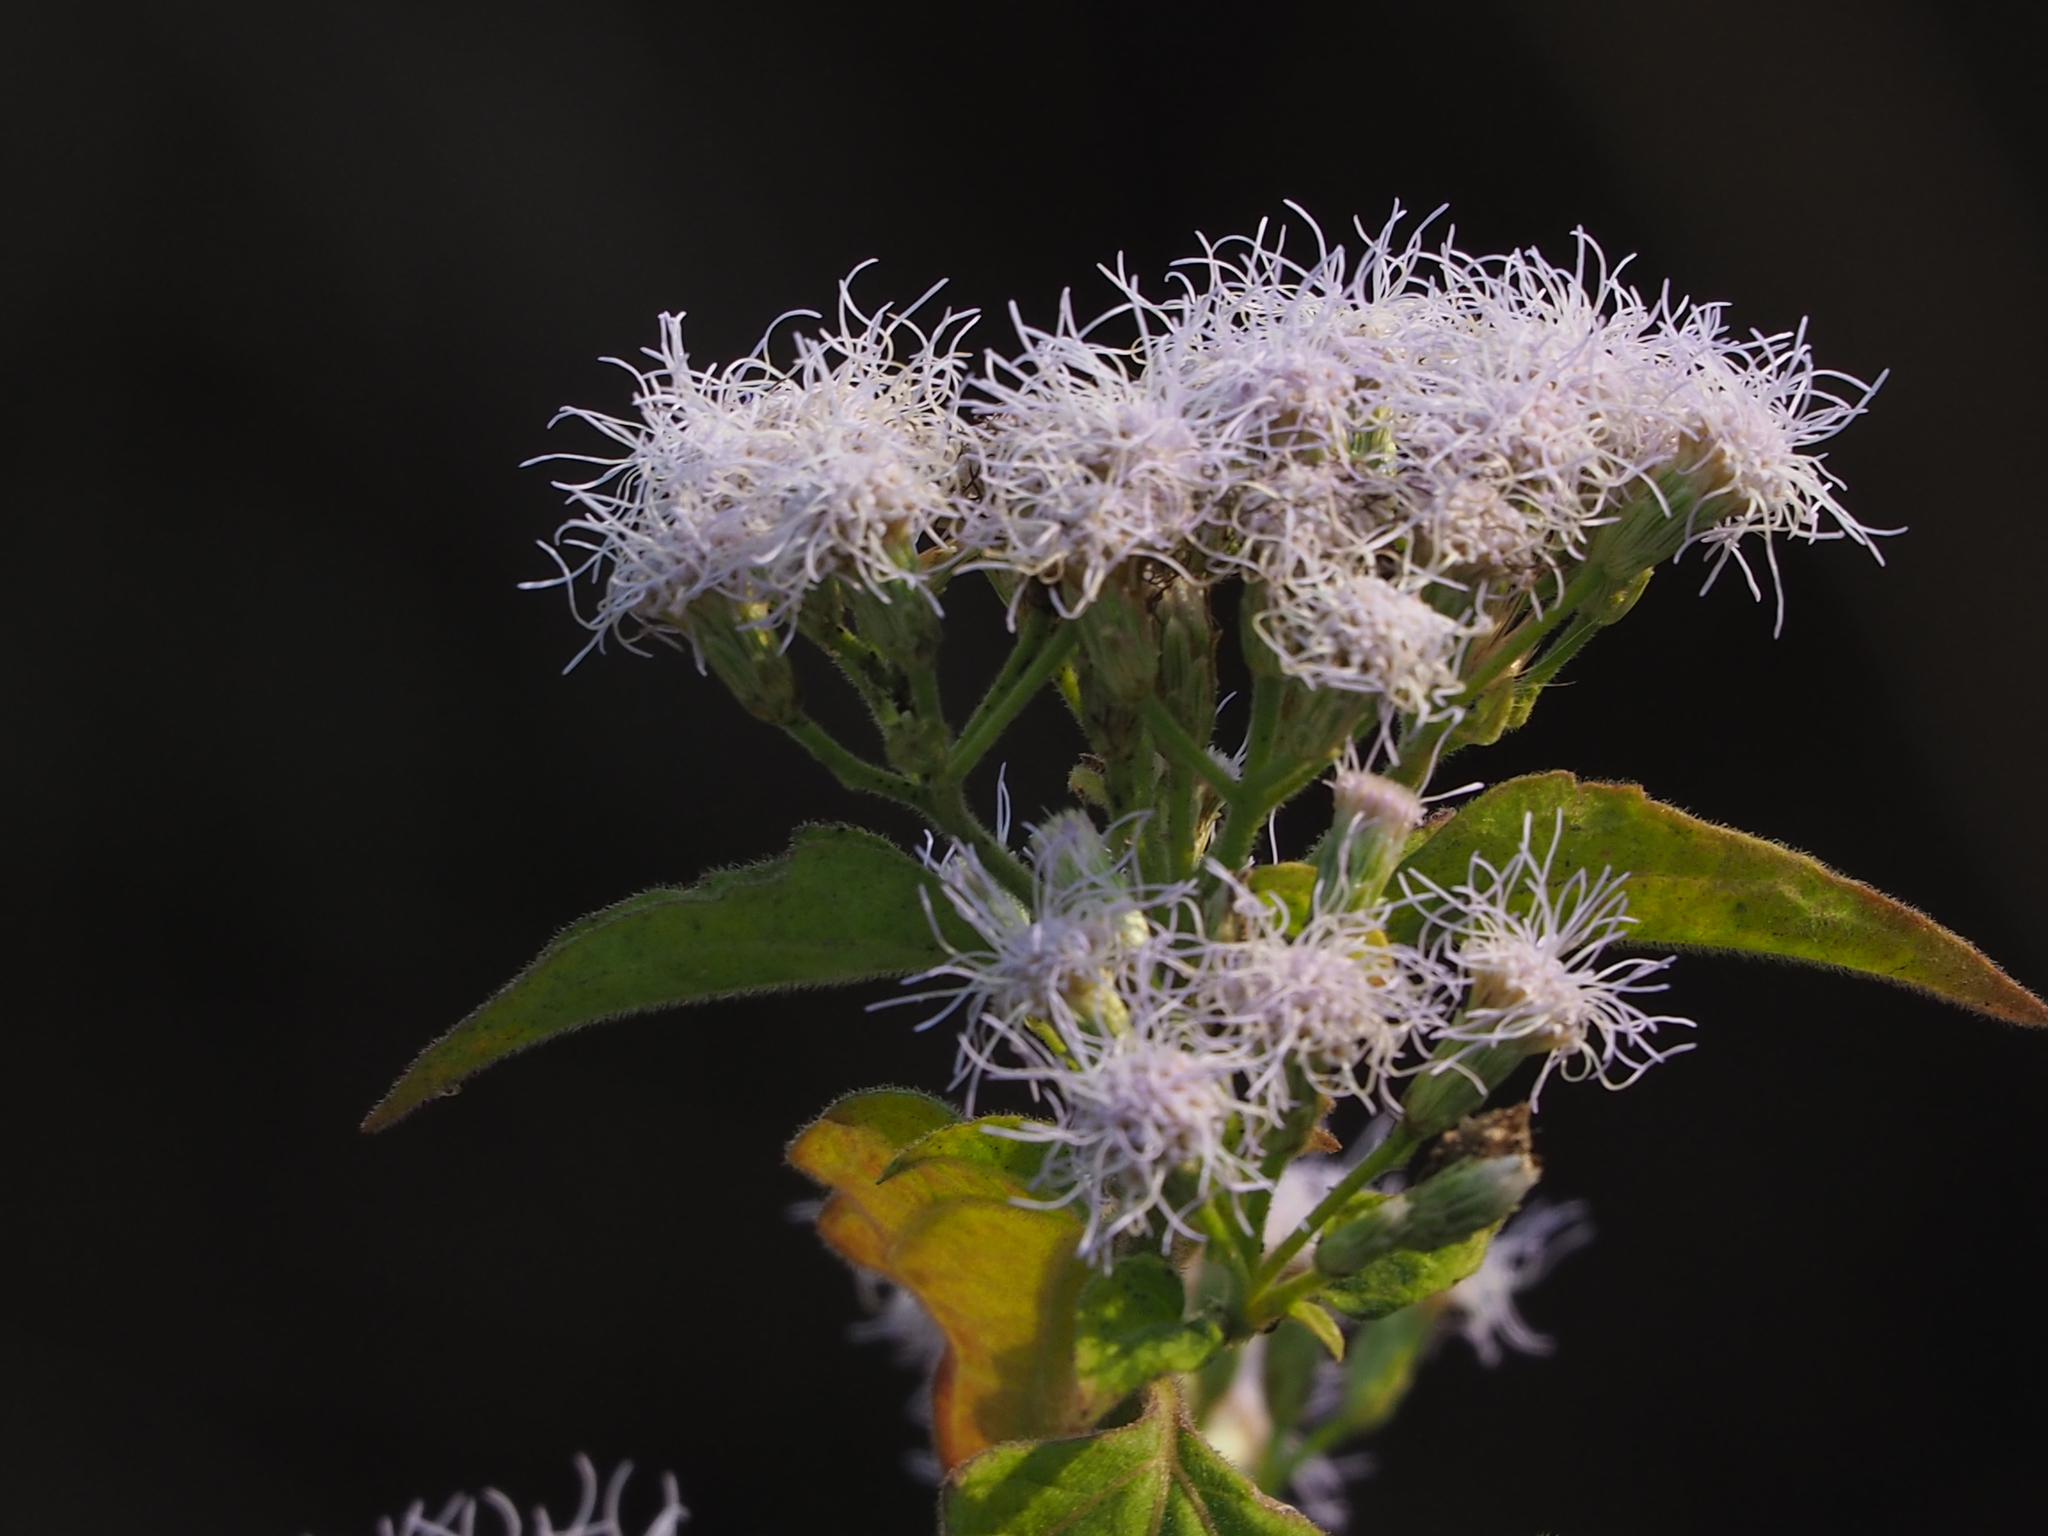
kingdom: Plantae
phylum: Tracheophyta
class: Magnoliopsida
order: Asterales
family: Asteraceae
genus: Chromolaena
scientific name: Chromolaena odorata
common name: Siamweed
